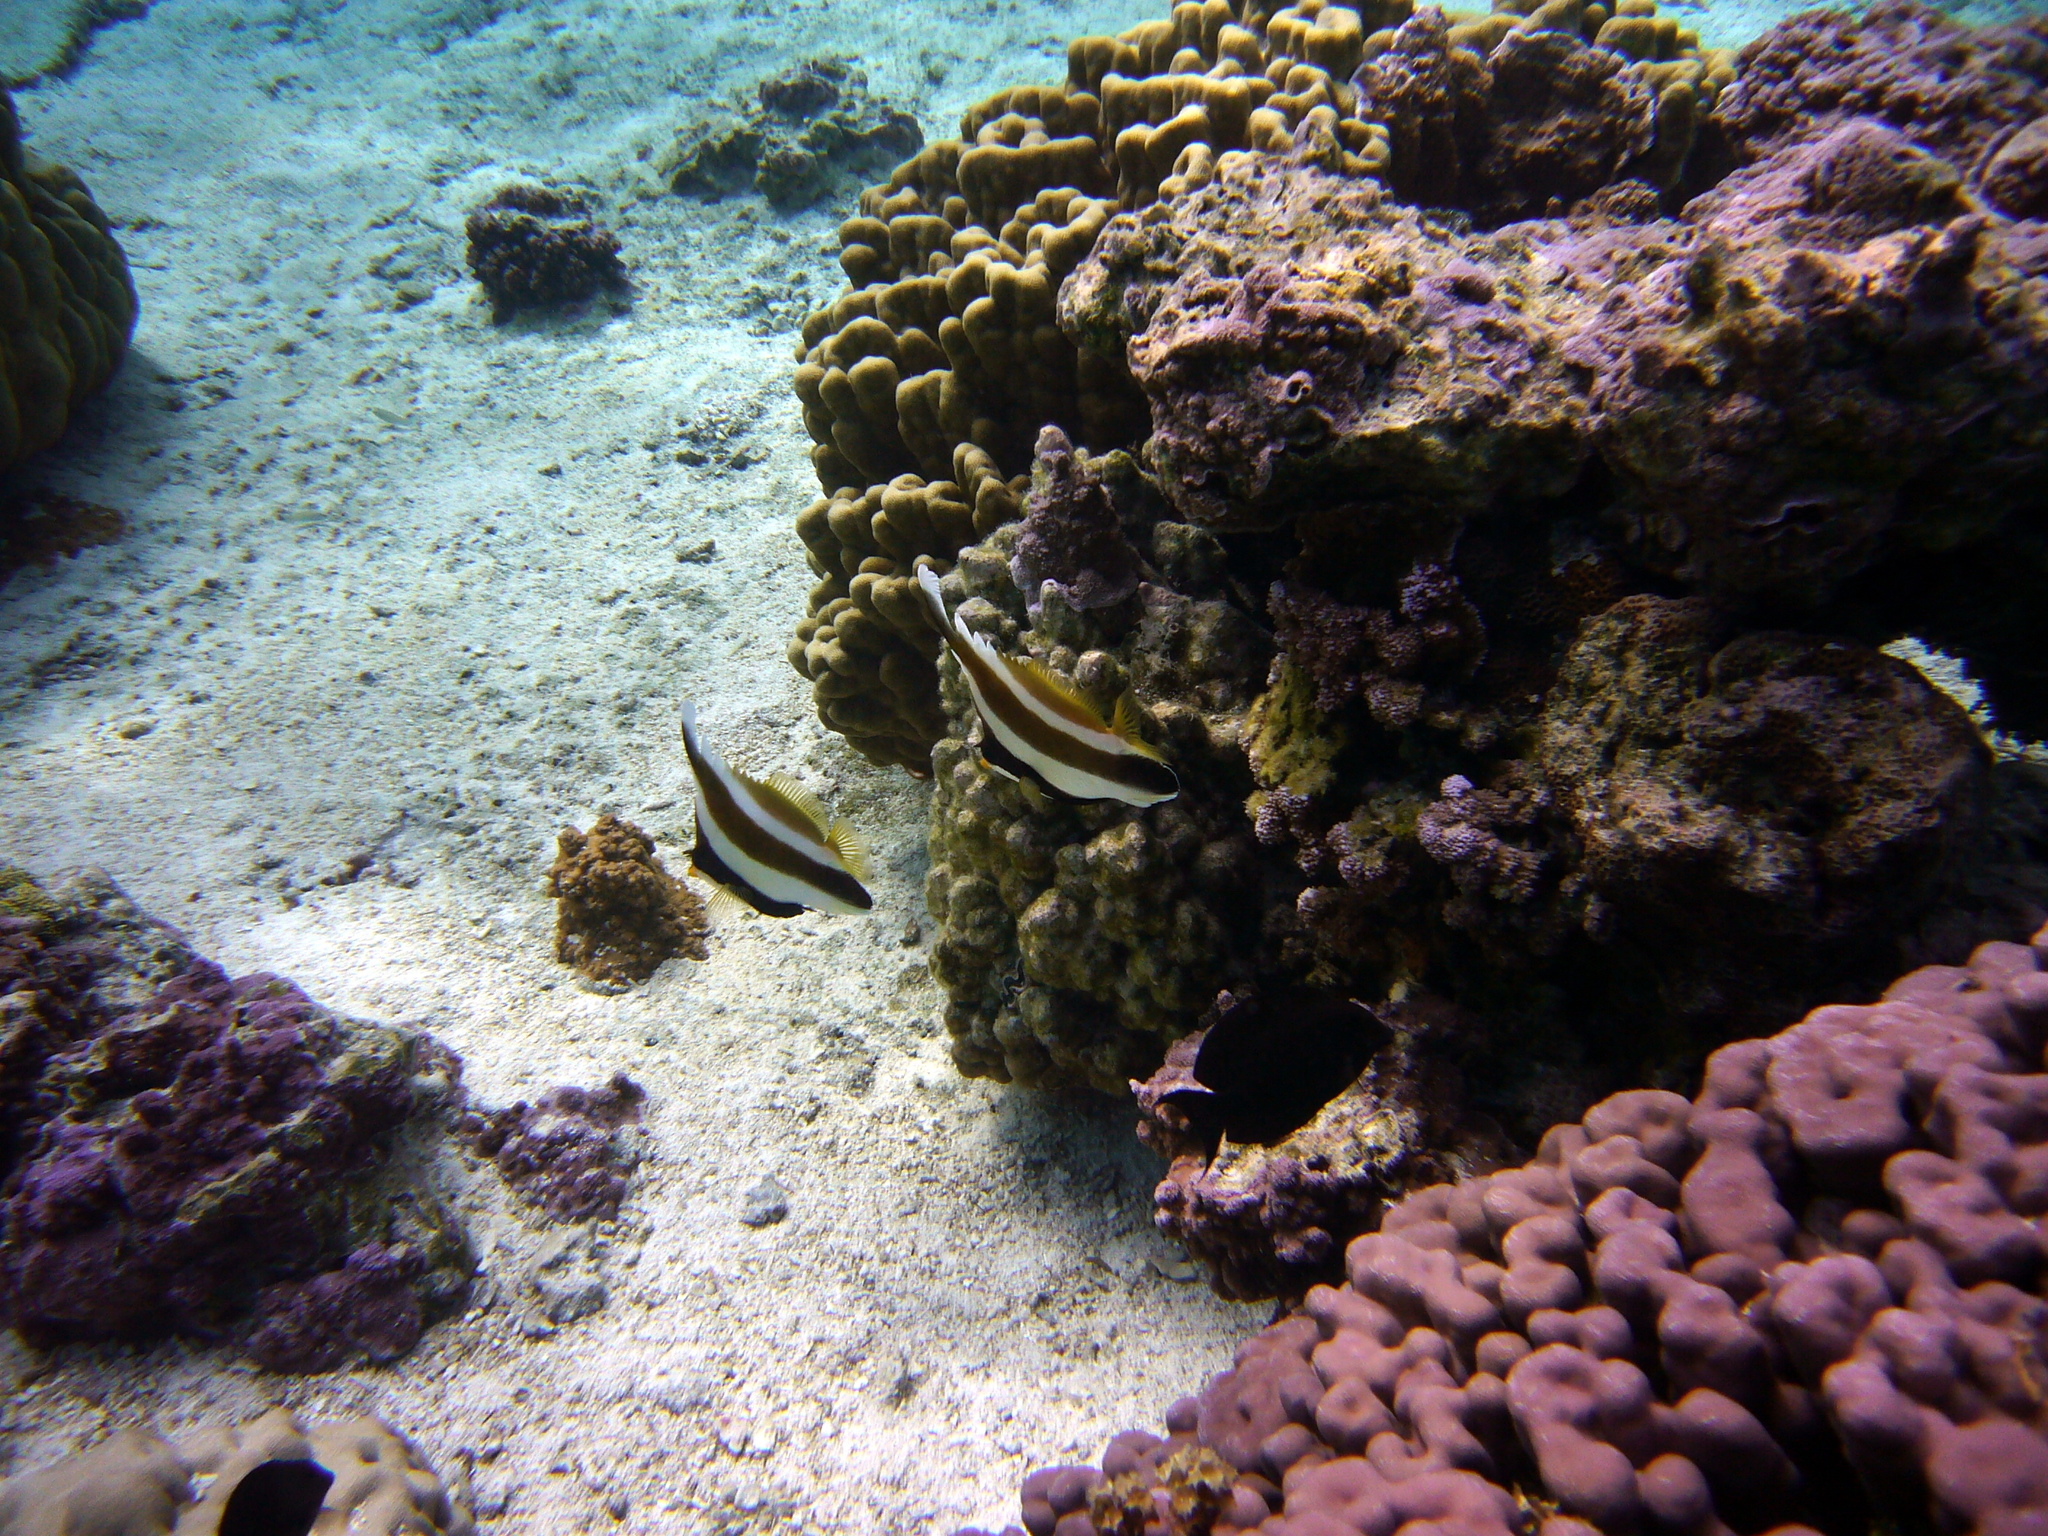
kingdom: Animalia
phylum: Chordata
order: Perciformes
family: Chaetodontidae
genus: Heniochus
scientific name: Heniochus chrysostomus
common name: Horned bannerfish
